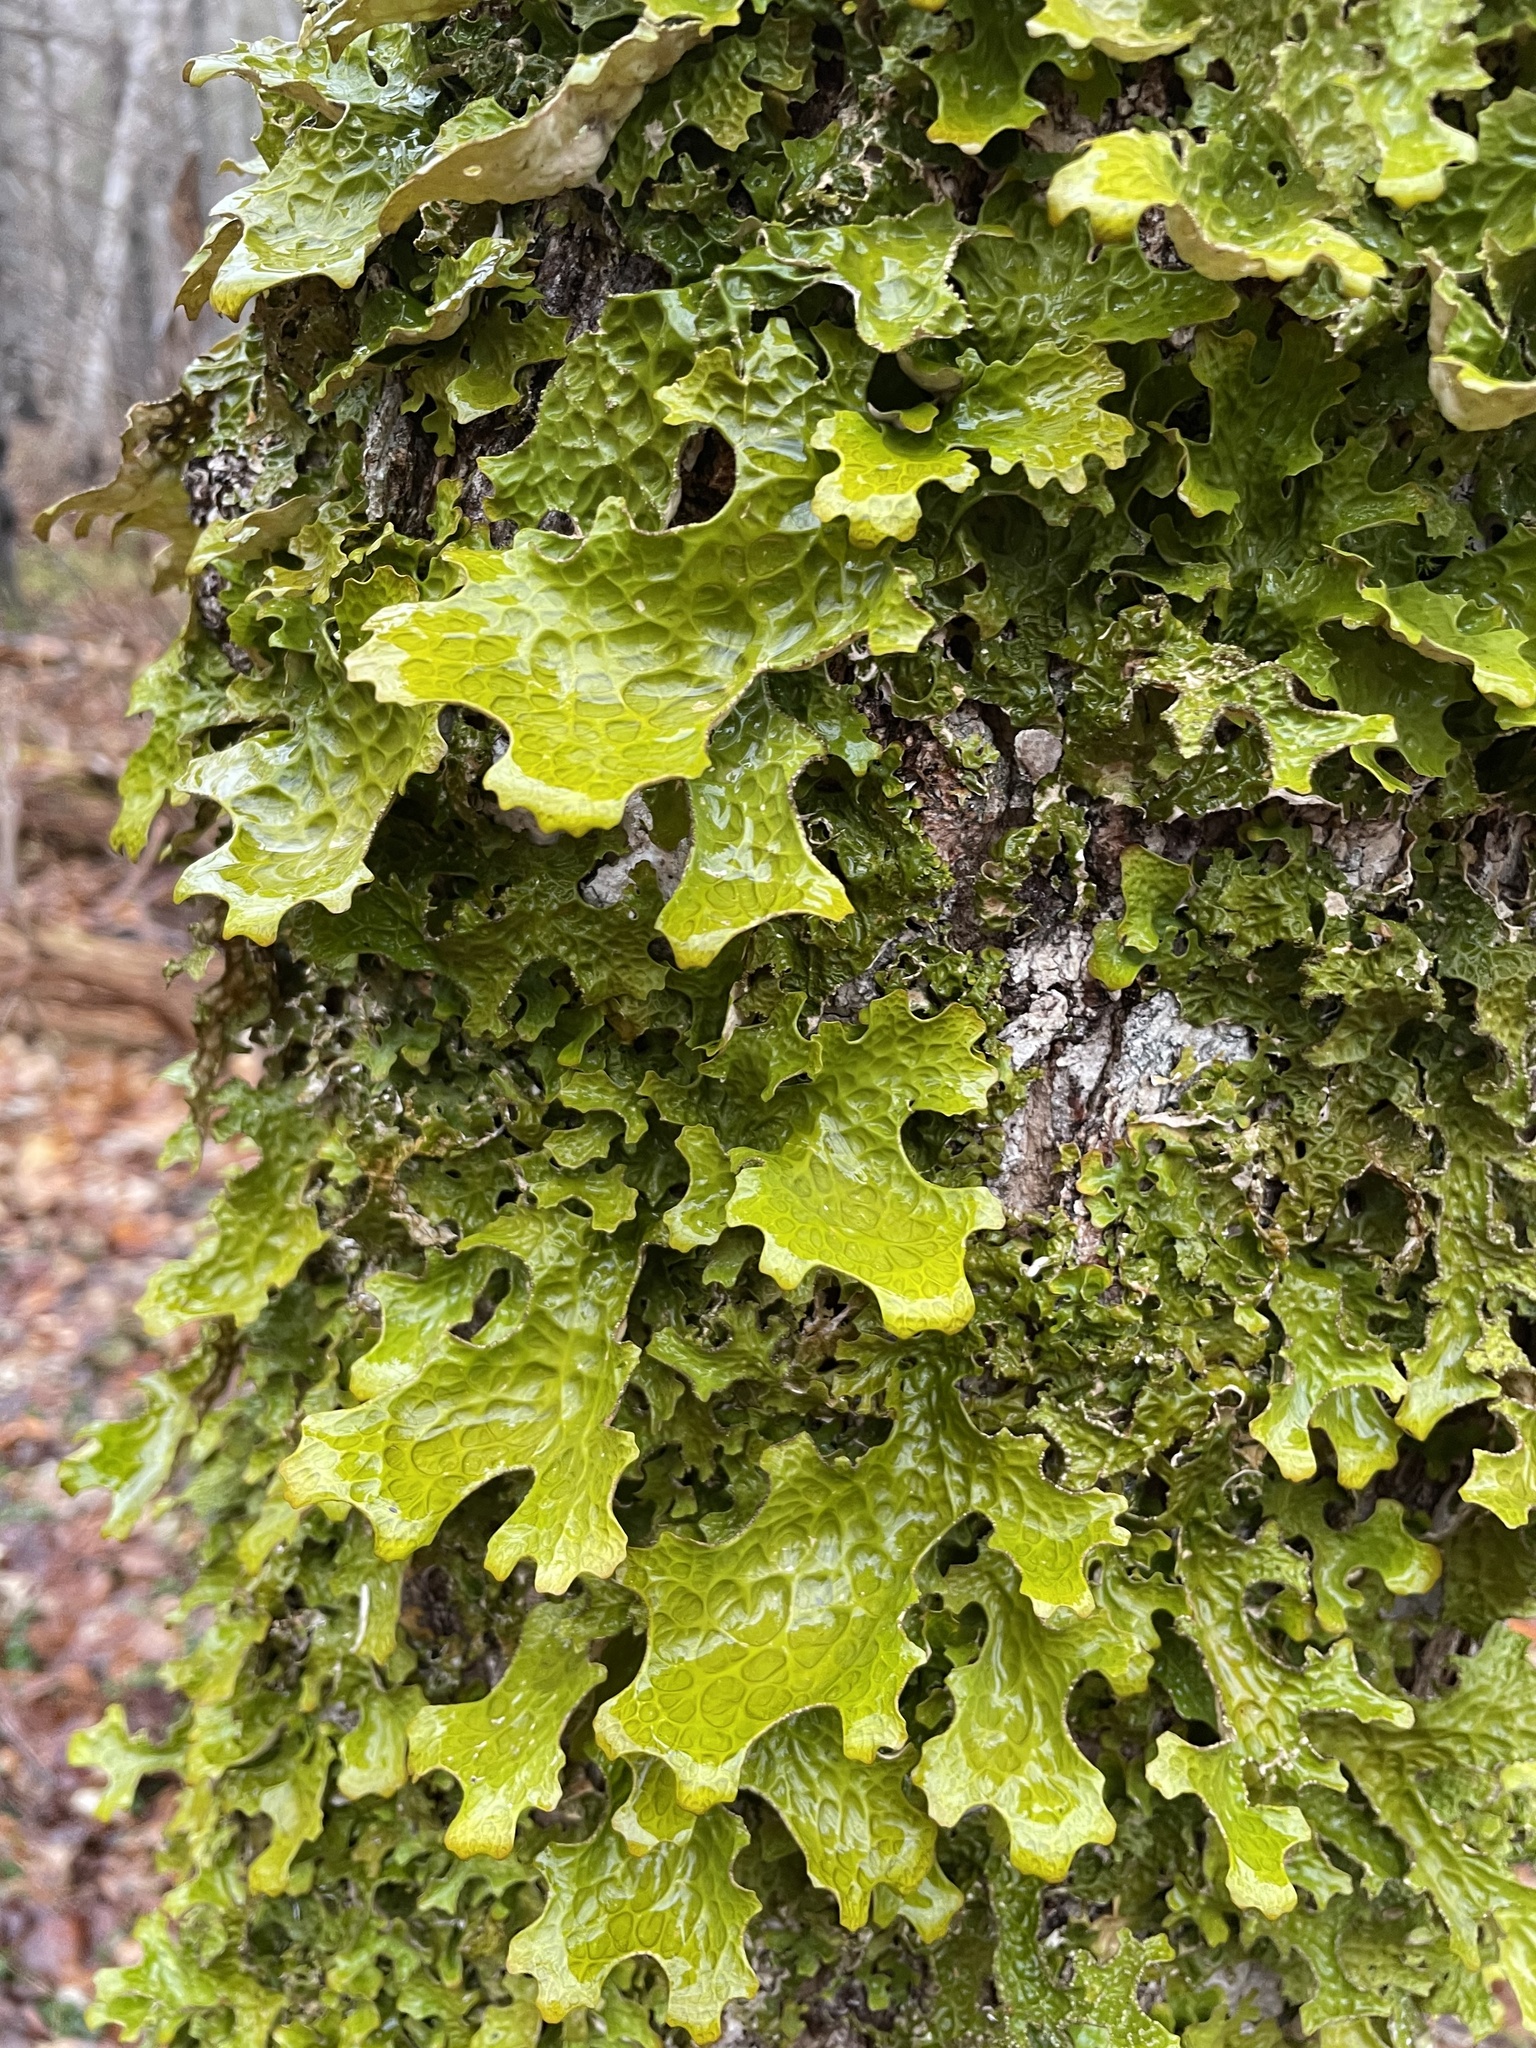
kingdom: Fungi
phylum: Ascomycota
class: Lecanoromycetes
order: Peltigerales
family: Lobariaceae
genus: Lobaria
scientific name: Lobaria pulmonaria
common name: Lungwort
